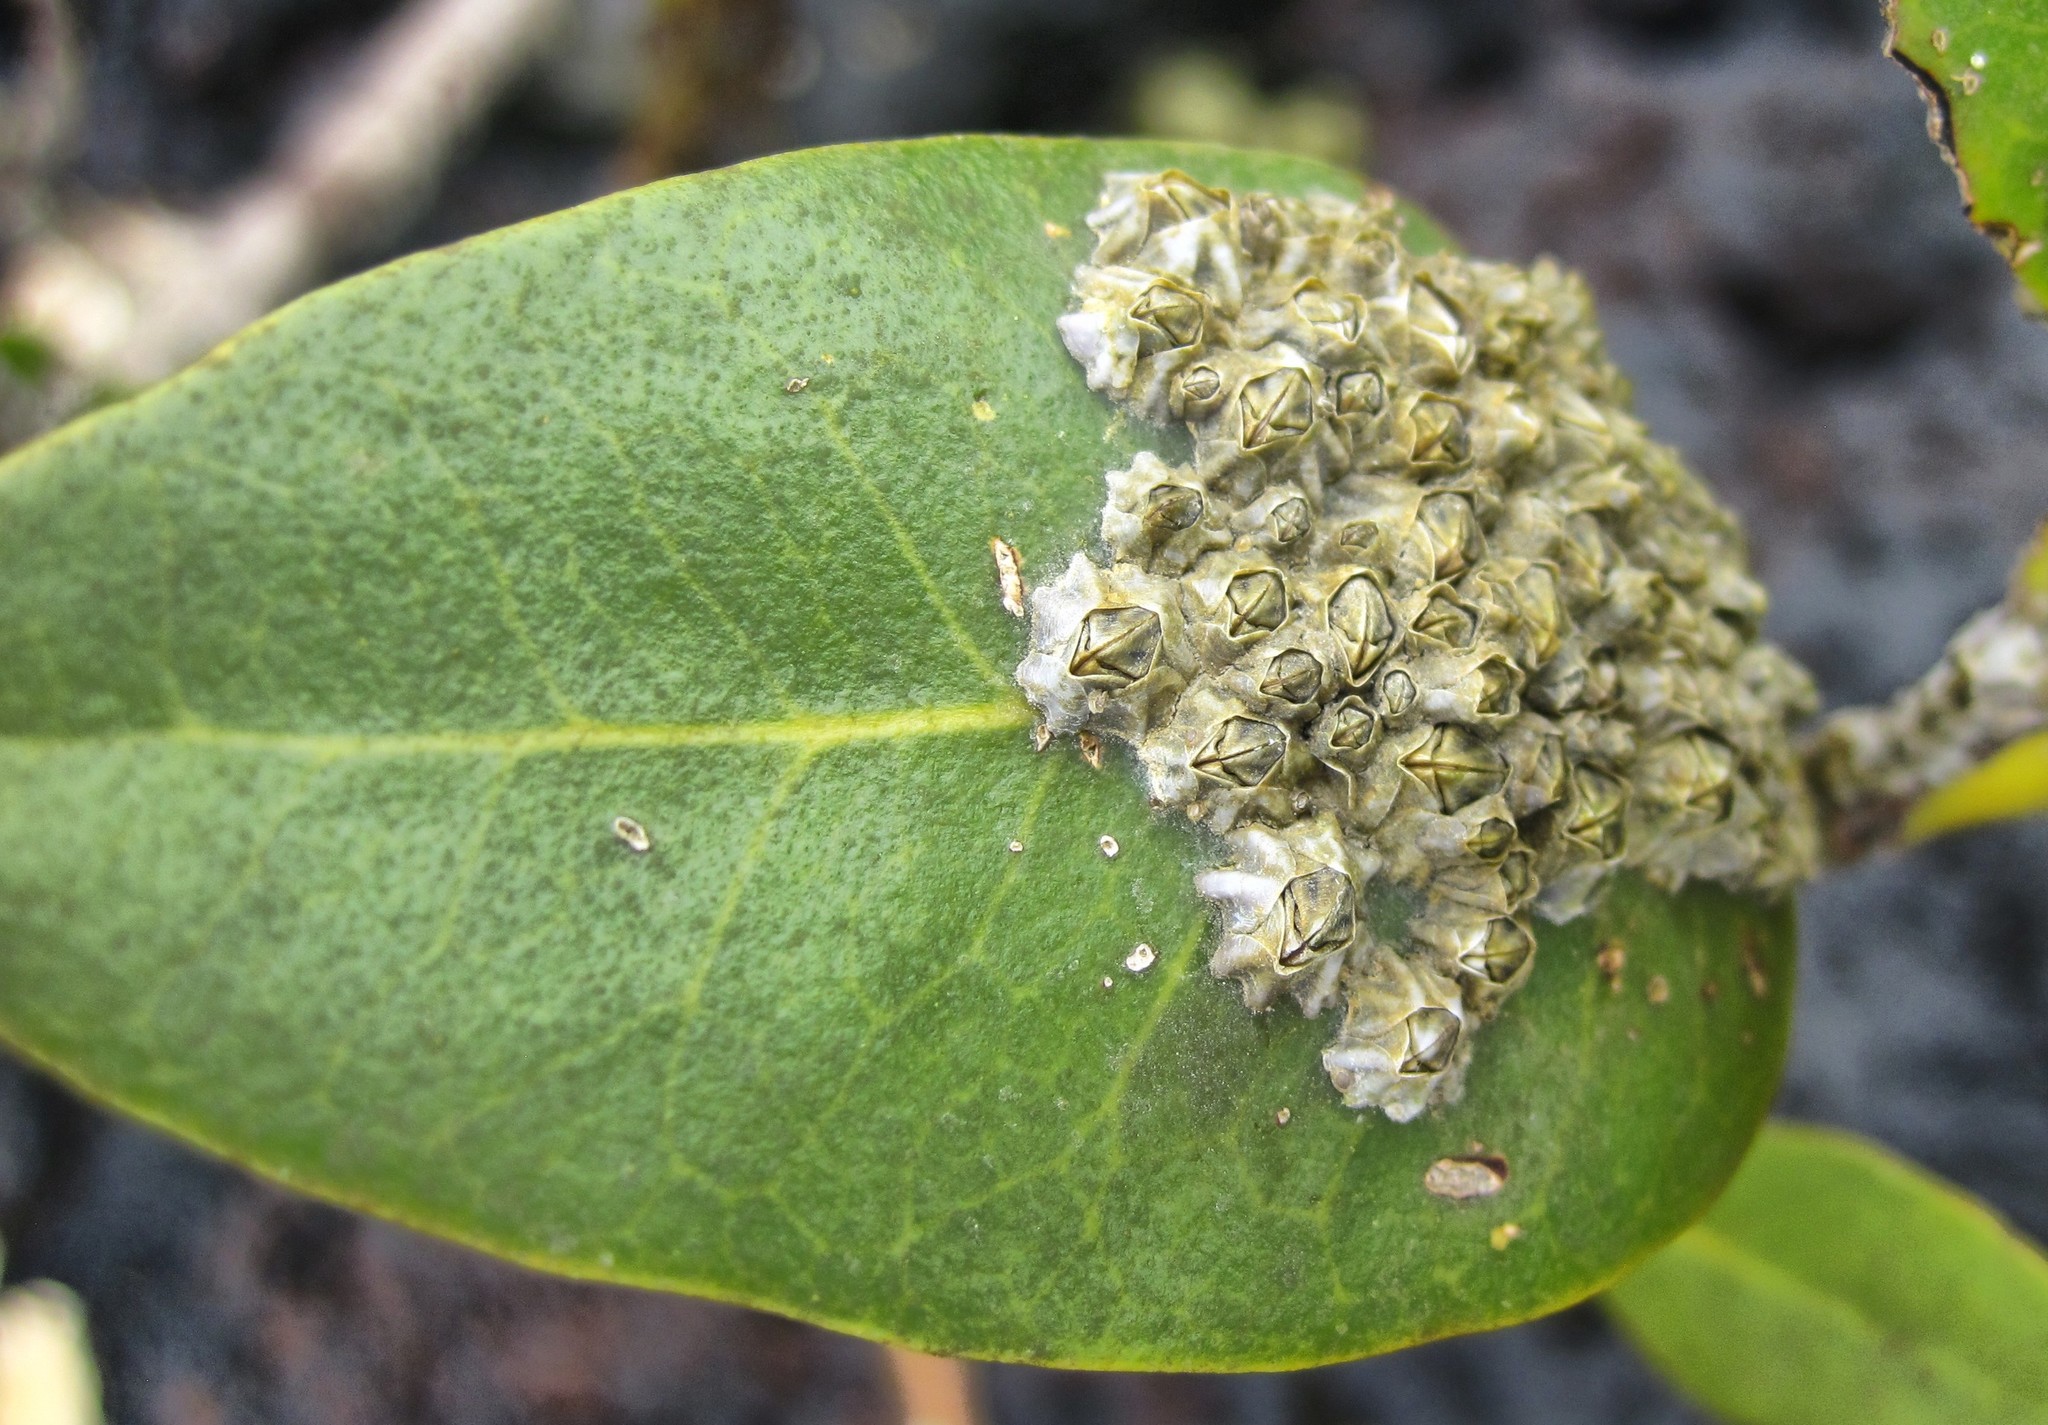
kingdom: Plantae
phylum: Tracheophyta
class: Magnoliopsida
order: Lamiales
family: Acanthaceae
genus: Avicennia
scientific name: Avicennia marina
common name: Gray mangrove
